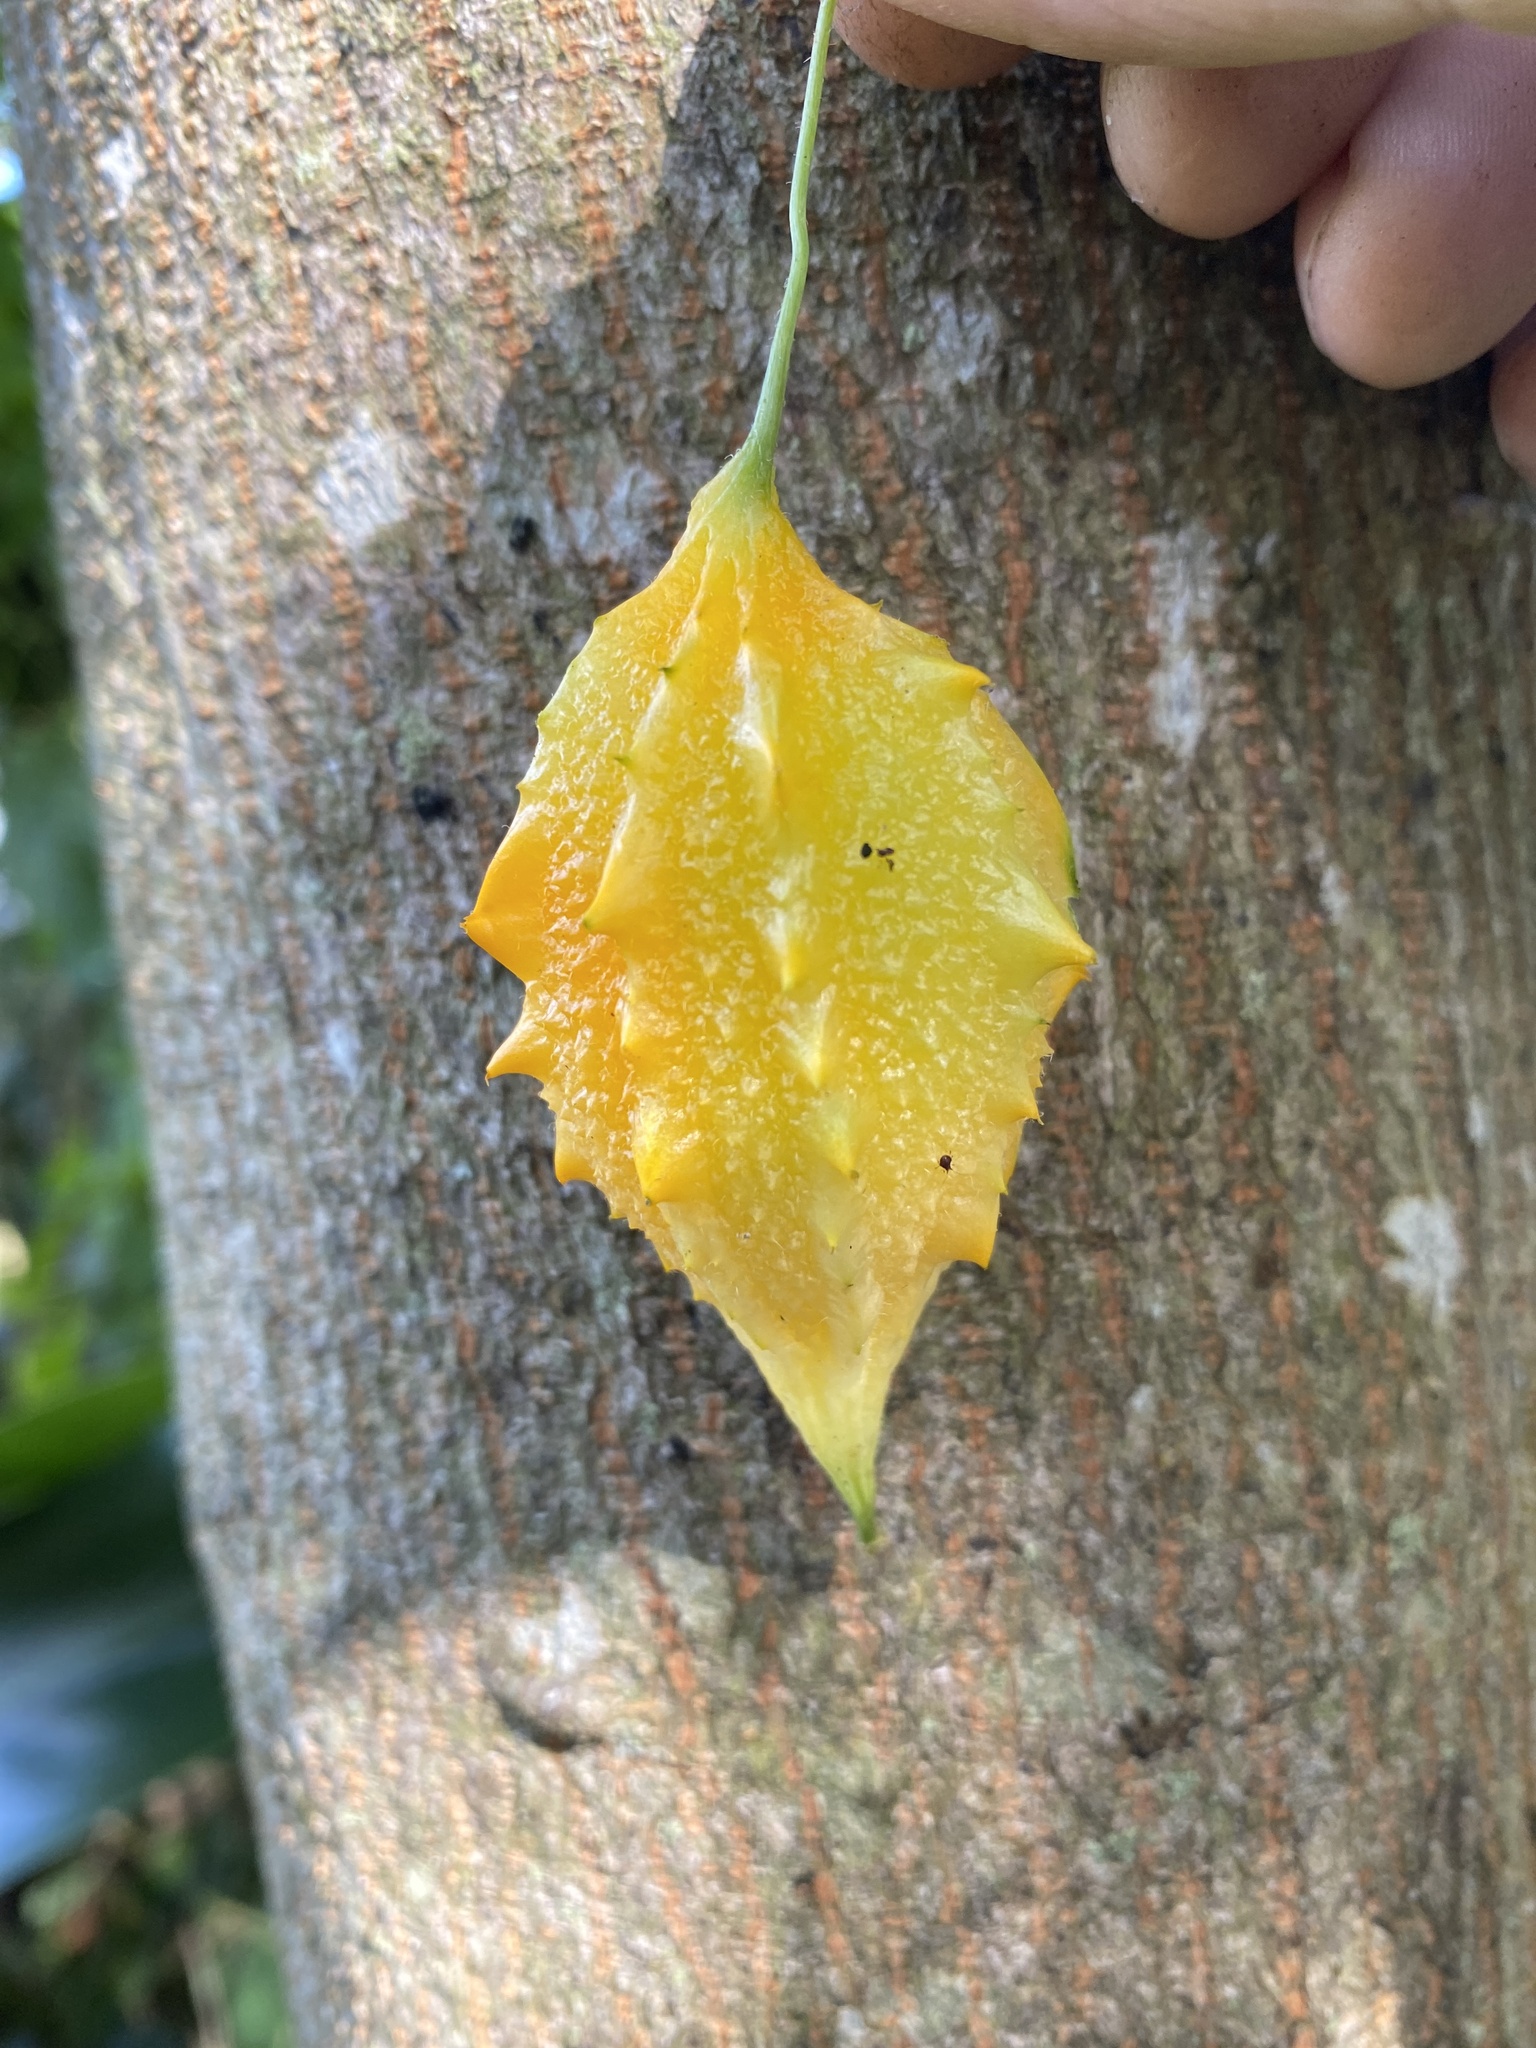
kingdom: Plantae
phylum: Tracheophyta
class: Magnoliopsida
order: Cucurbitales
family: Cucurbitaceae
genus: Momordica
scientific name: Momordica charantia
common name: Balsampear
